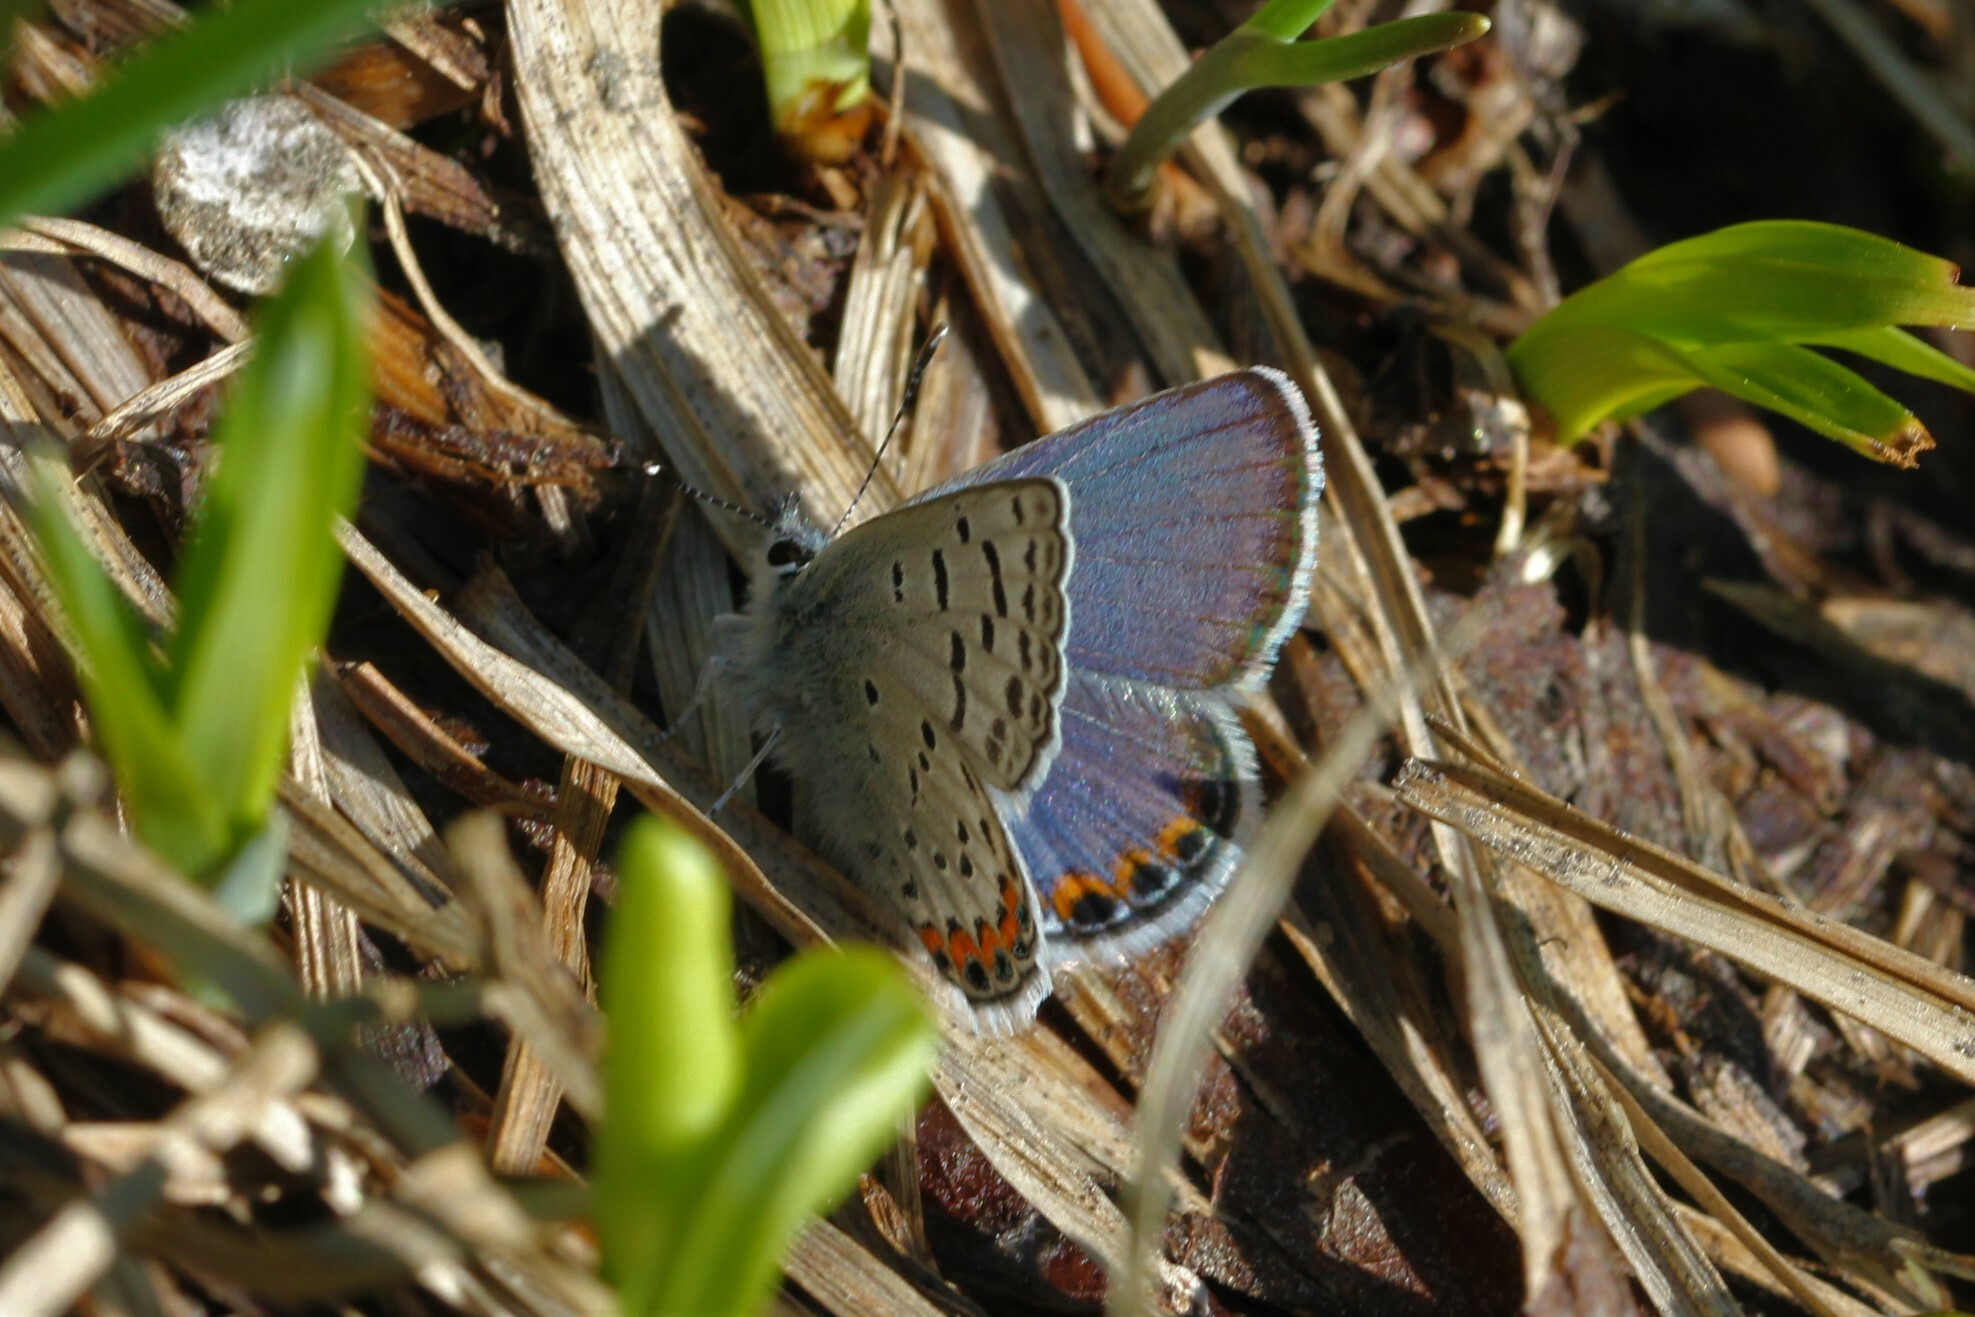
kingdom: Animalia
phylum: Arthropoda
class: Insecta
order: Lepidoptera
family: Lycaenidae
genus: Icaricia
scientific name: Icaricia lupini
